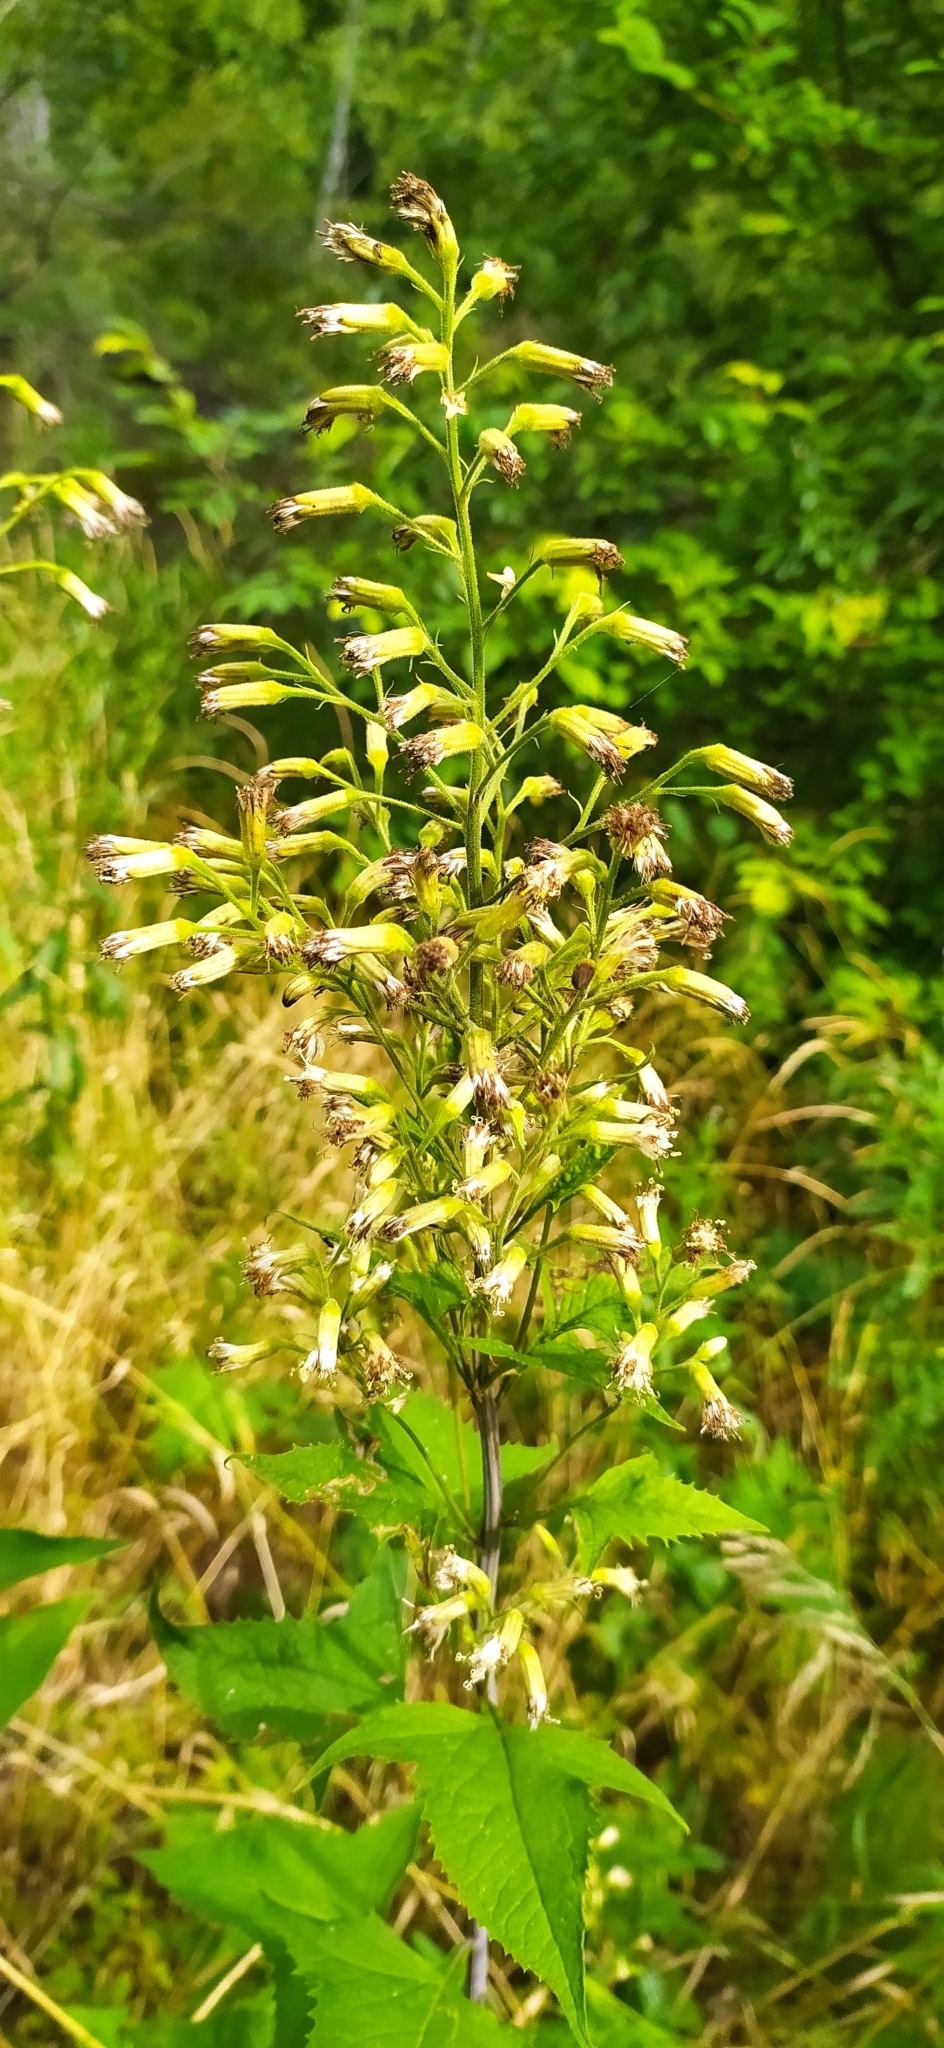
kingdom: Plantae
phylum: Tracheophyta
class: Magnoliopsida
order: Asterales
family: Asteraceae
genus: Parasenecio
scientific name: Parasenecio hastatus
